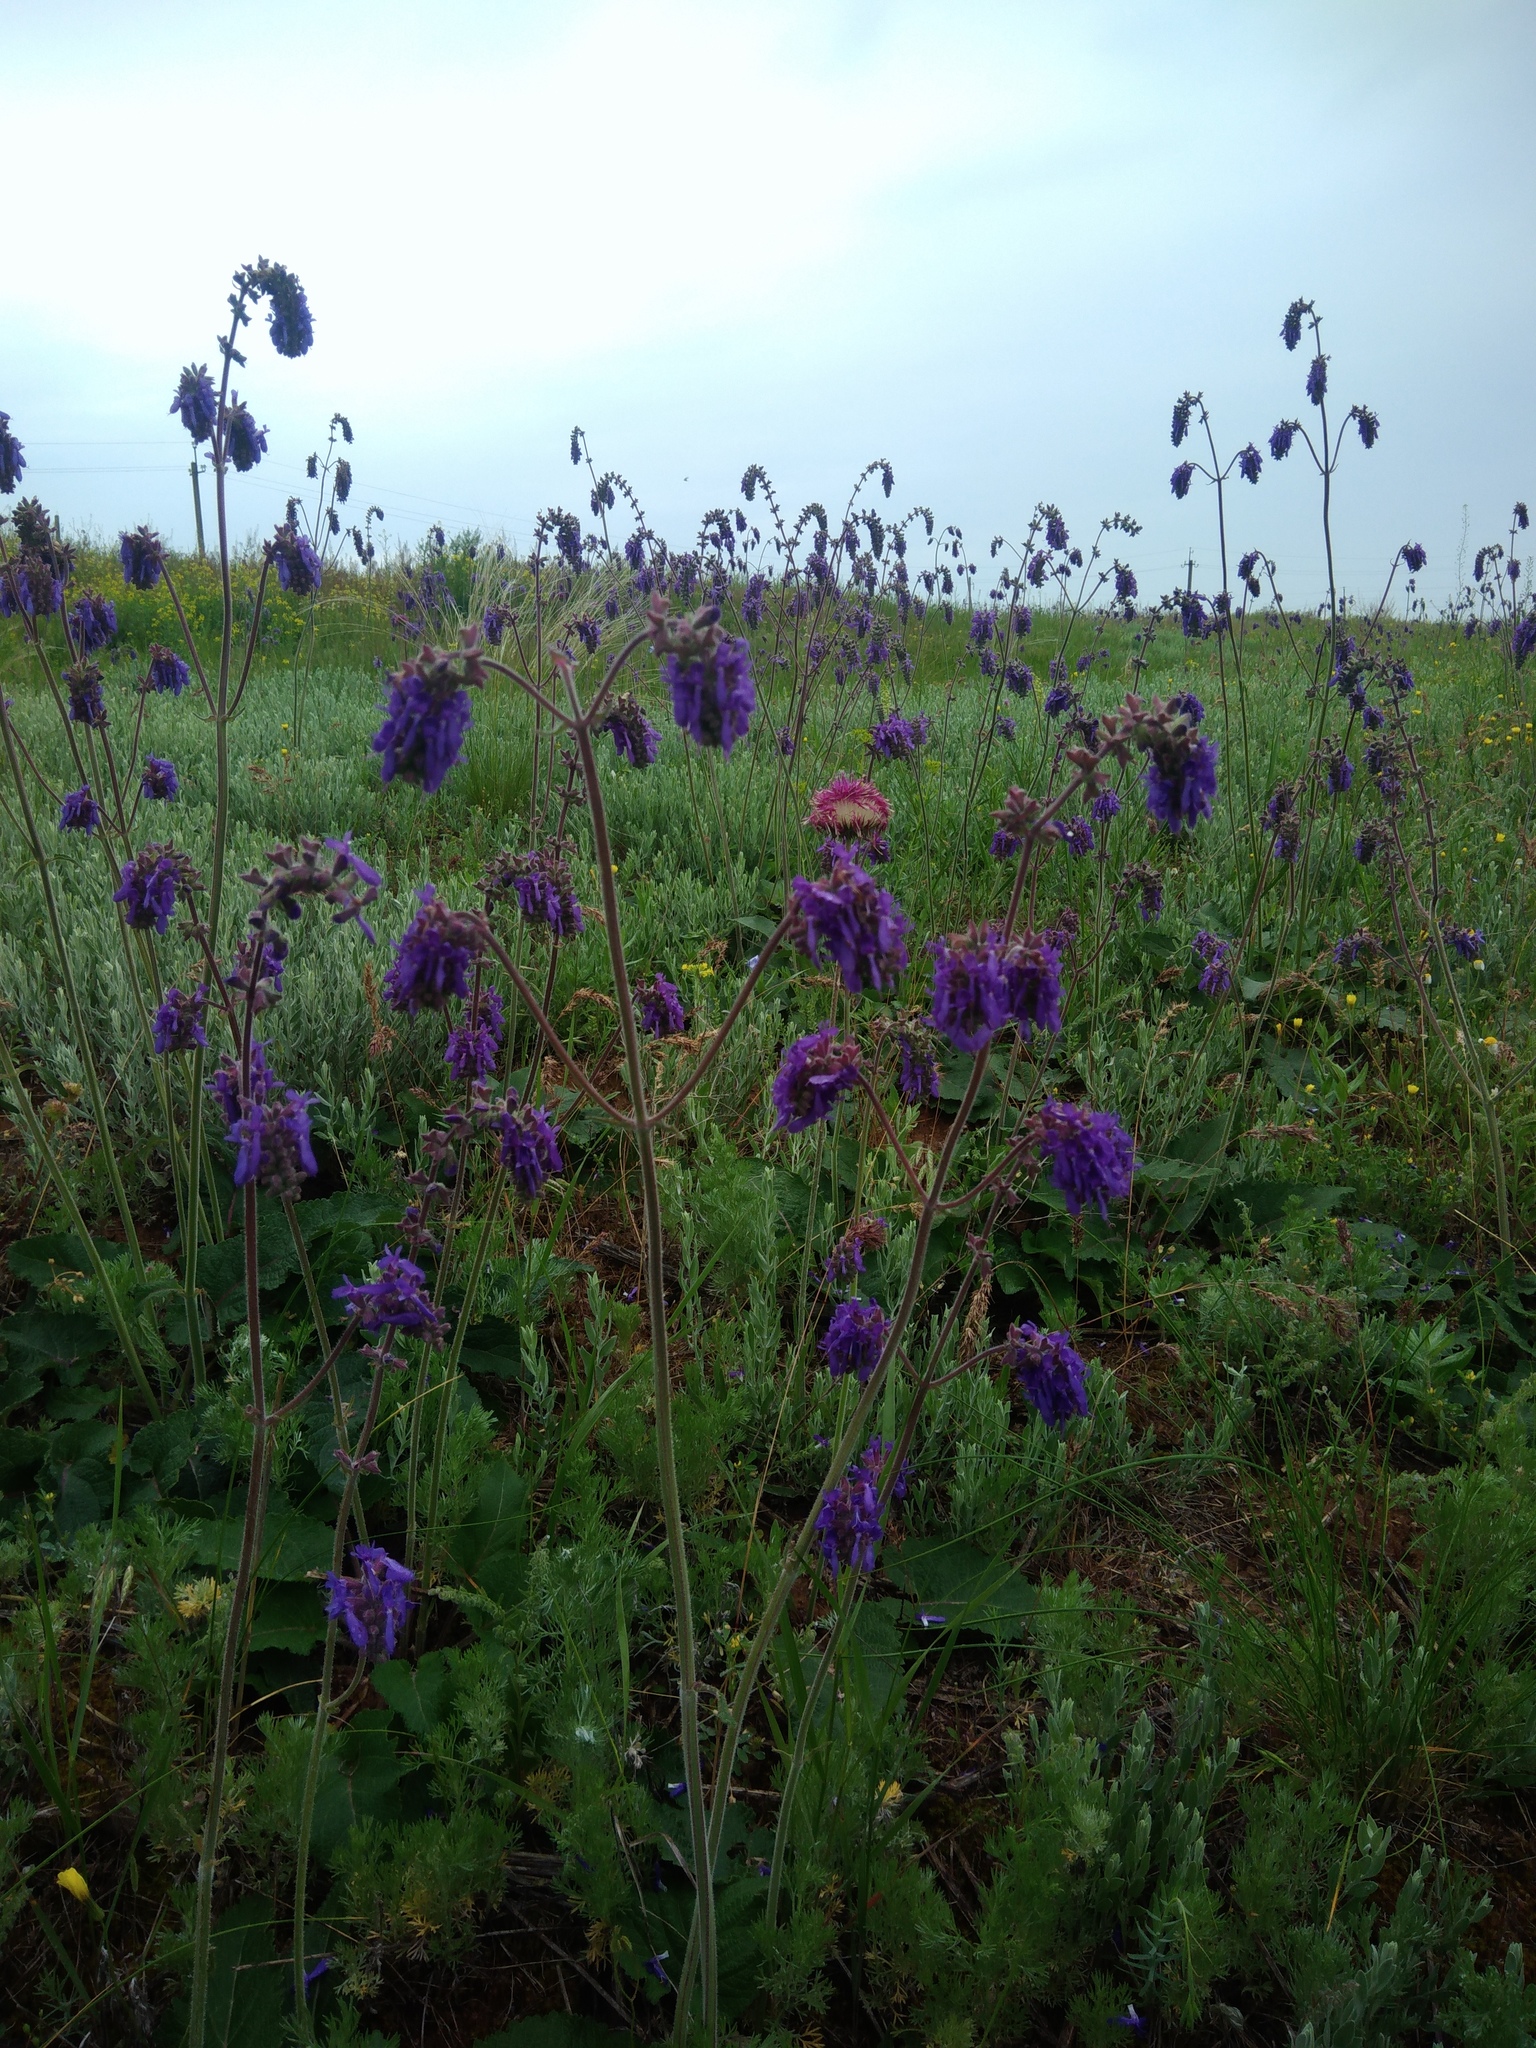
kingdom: Plantae
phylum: Tracheophyta
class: Magnoliopsida
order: Lamiales
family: Lamiaceae
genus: Salvia
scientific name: Salvia nutans
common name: Nodding sage
